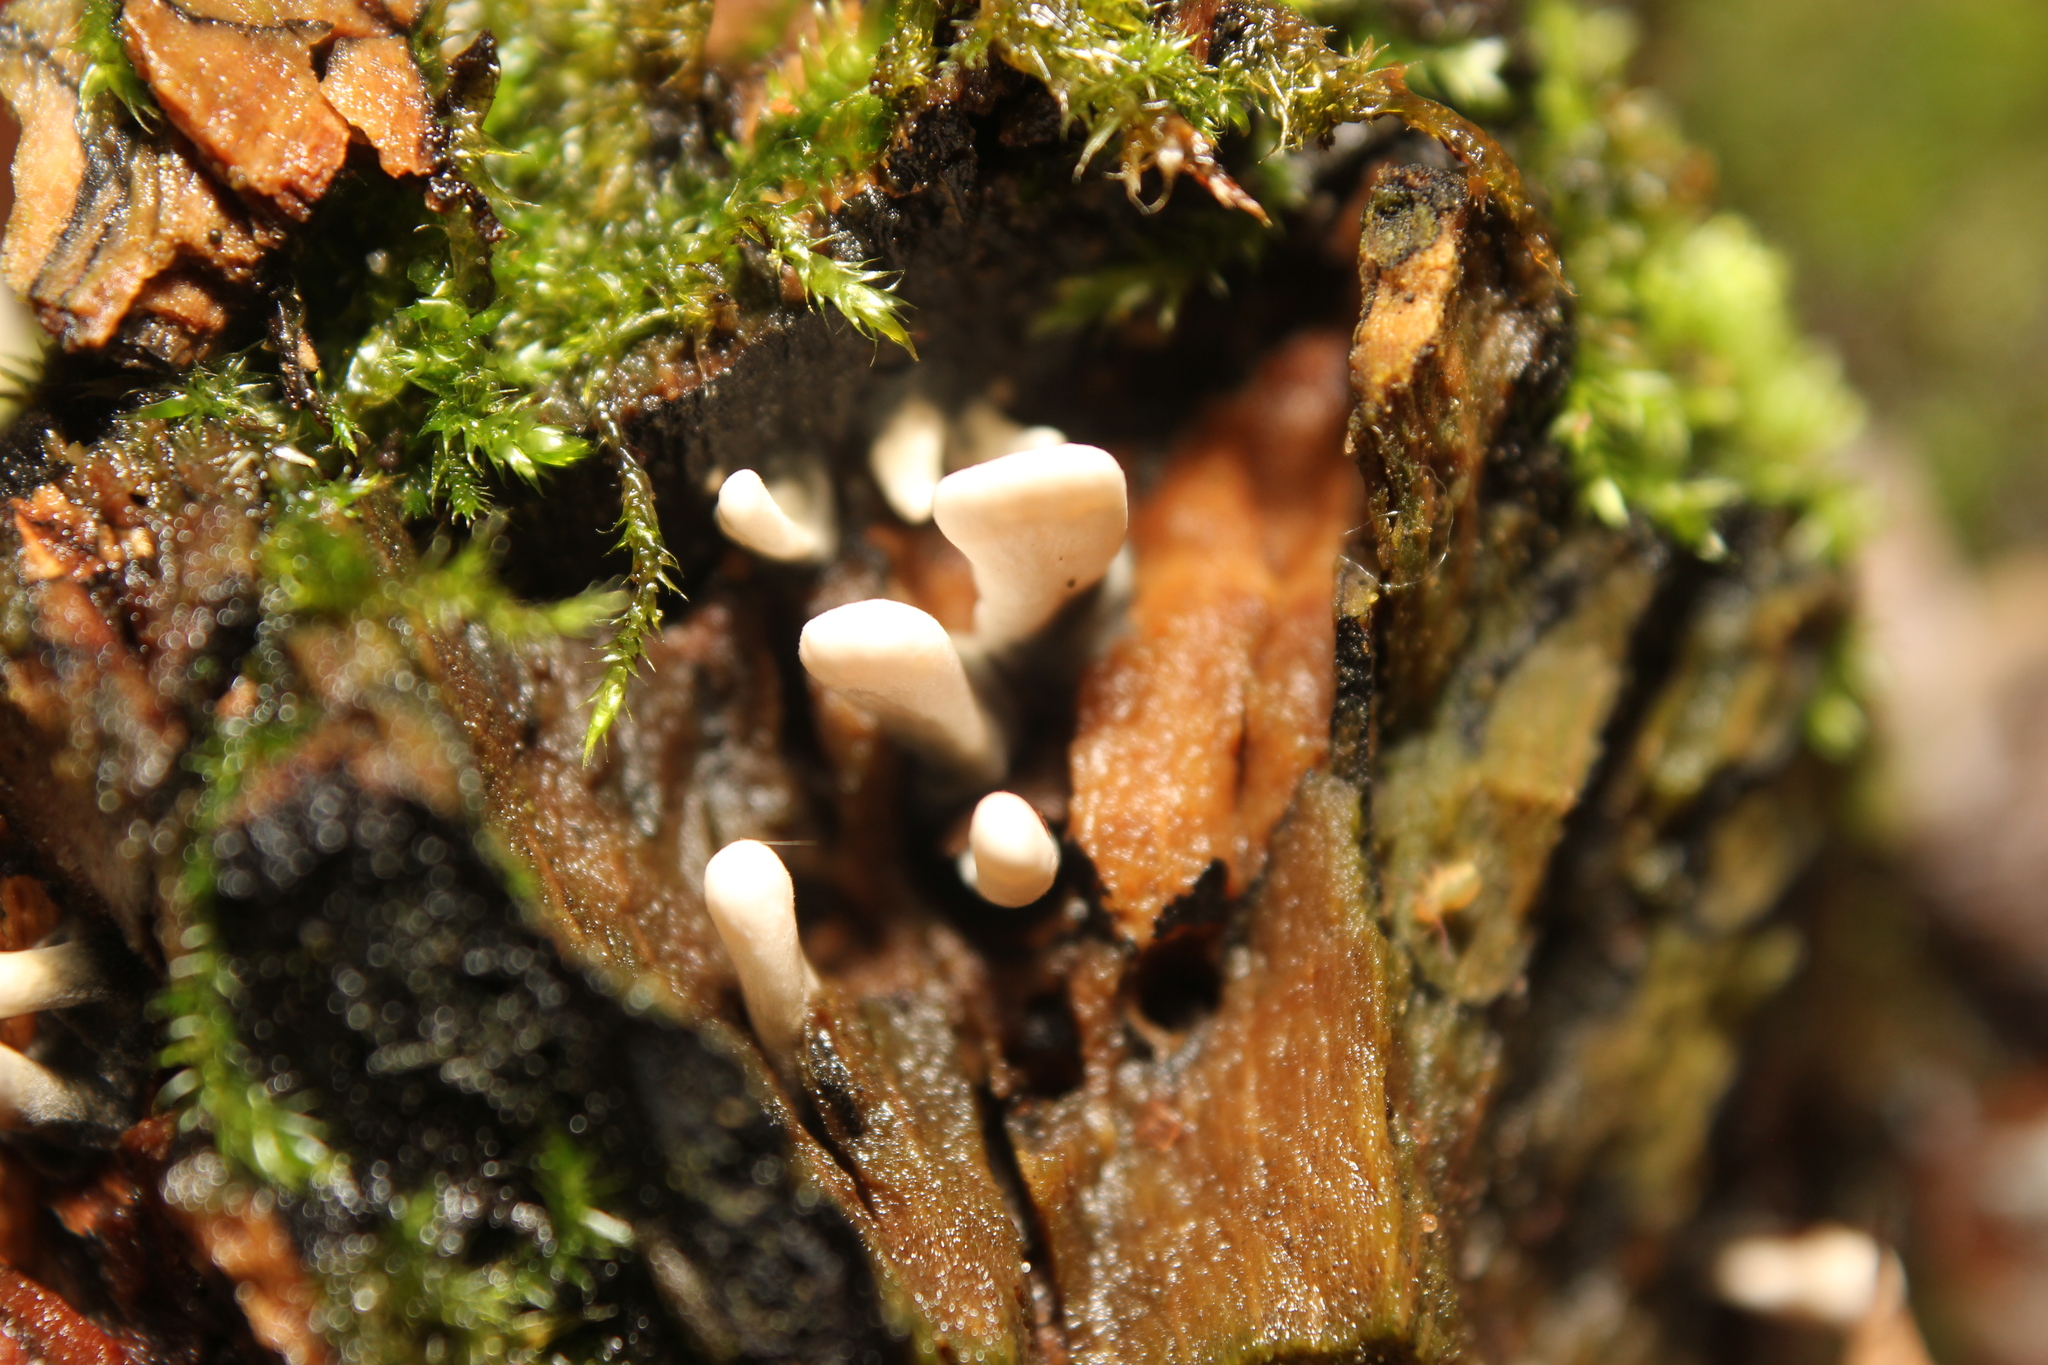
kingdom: Fungi
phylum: Ascomycota
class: Sordariomycetes
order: Xylariales
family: Xylariaceae
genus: Xylaria
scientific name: Xylaria hypoxylon
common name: Candle-snuff fungus
